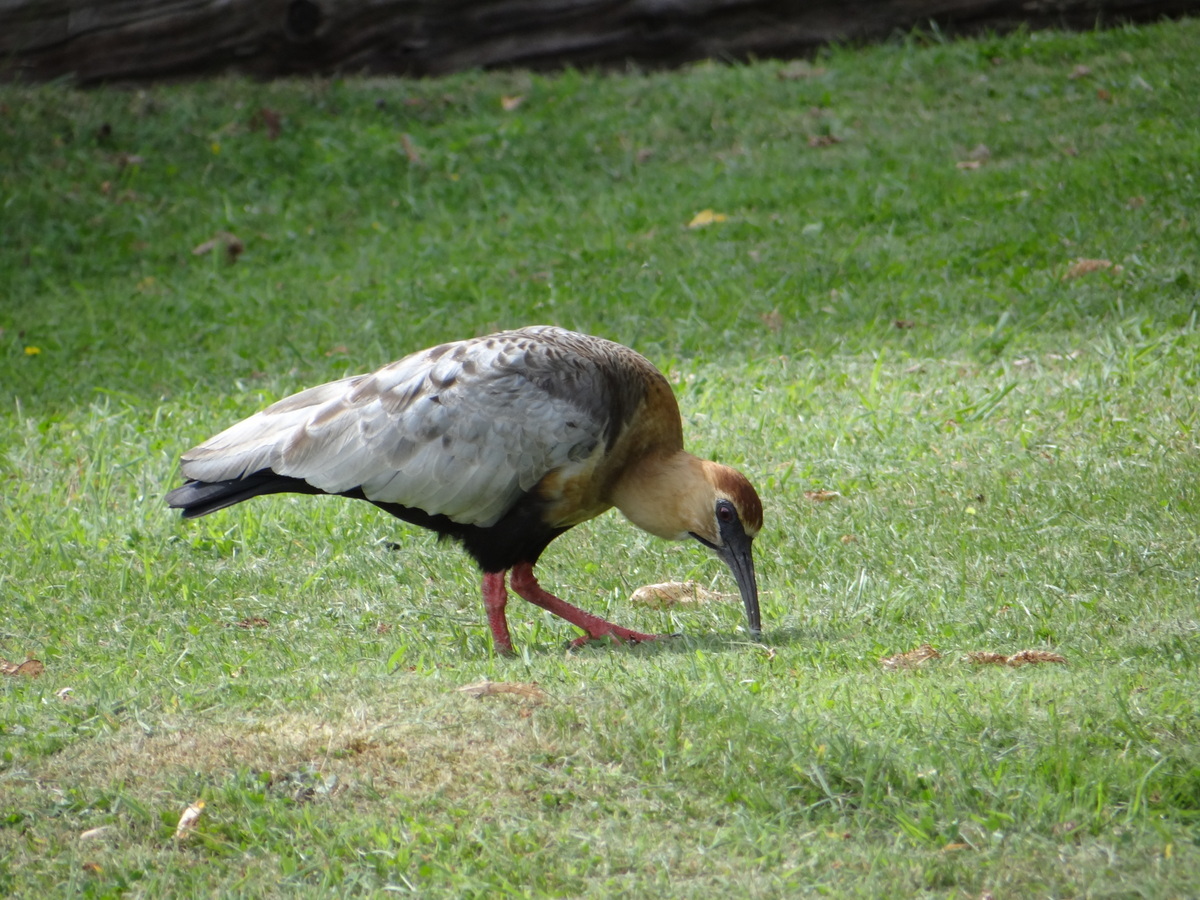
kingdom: Animalia
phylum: Chordata
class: Aves
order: Pelecaniformes
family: Threskiornithidae
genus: Theristicus
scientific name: Theristicus melanopis
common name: Black-faced ibis
